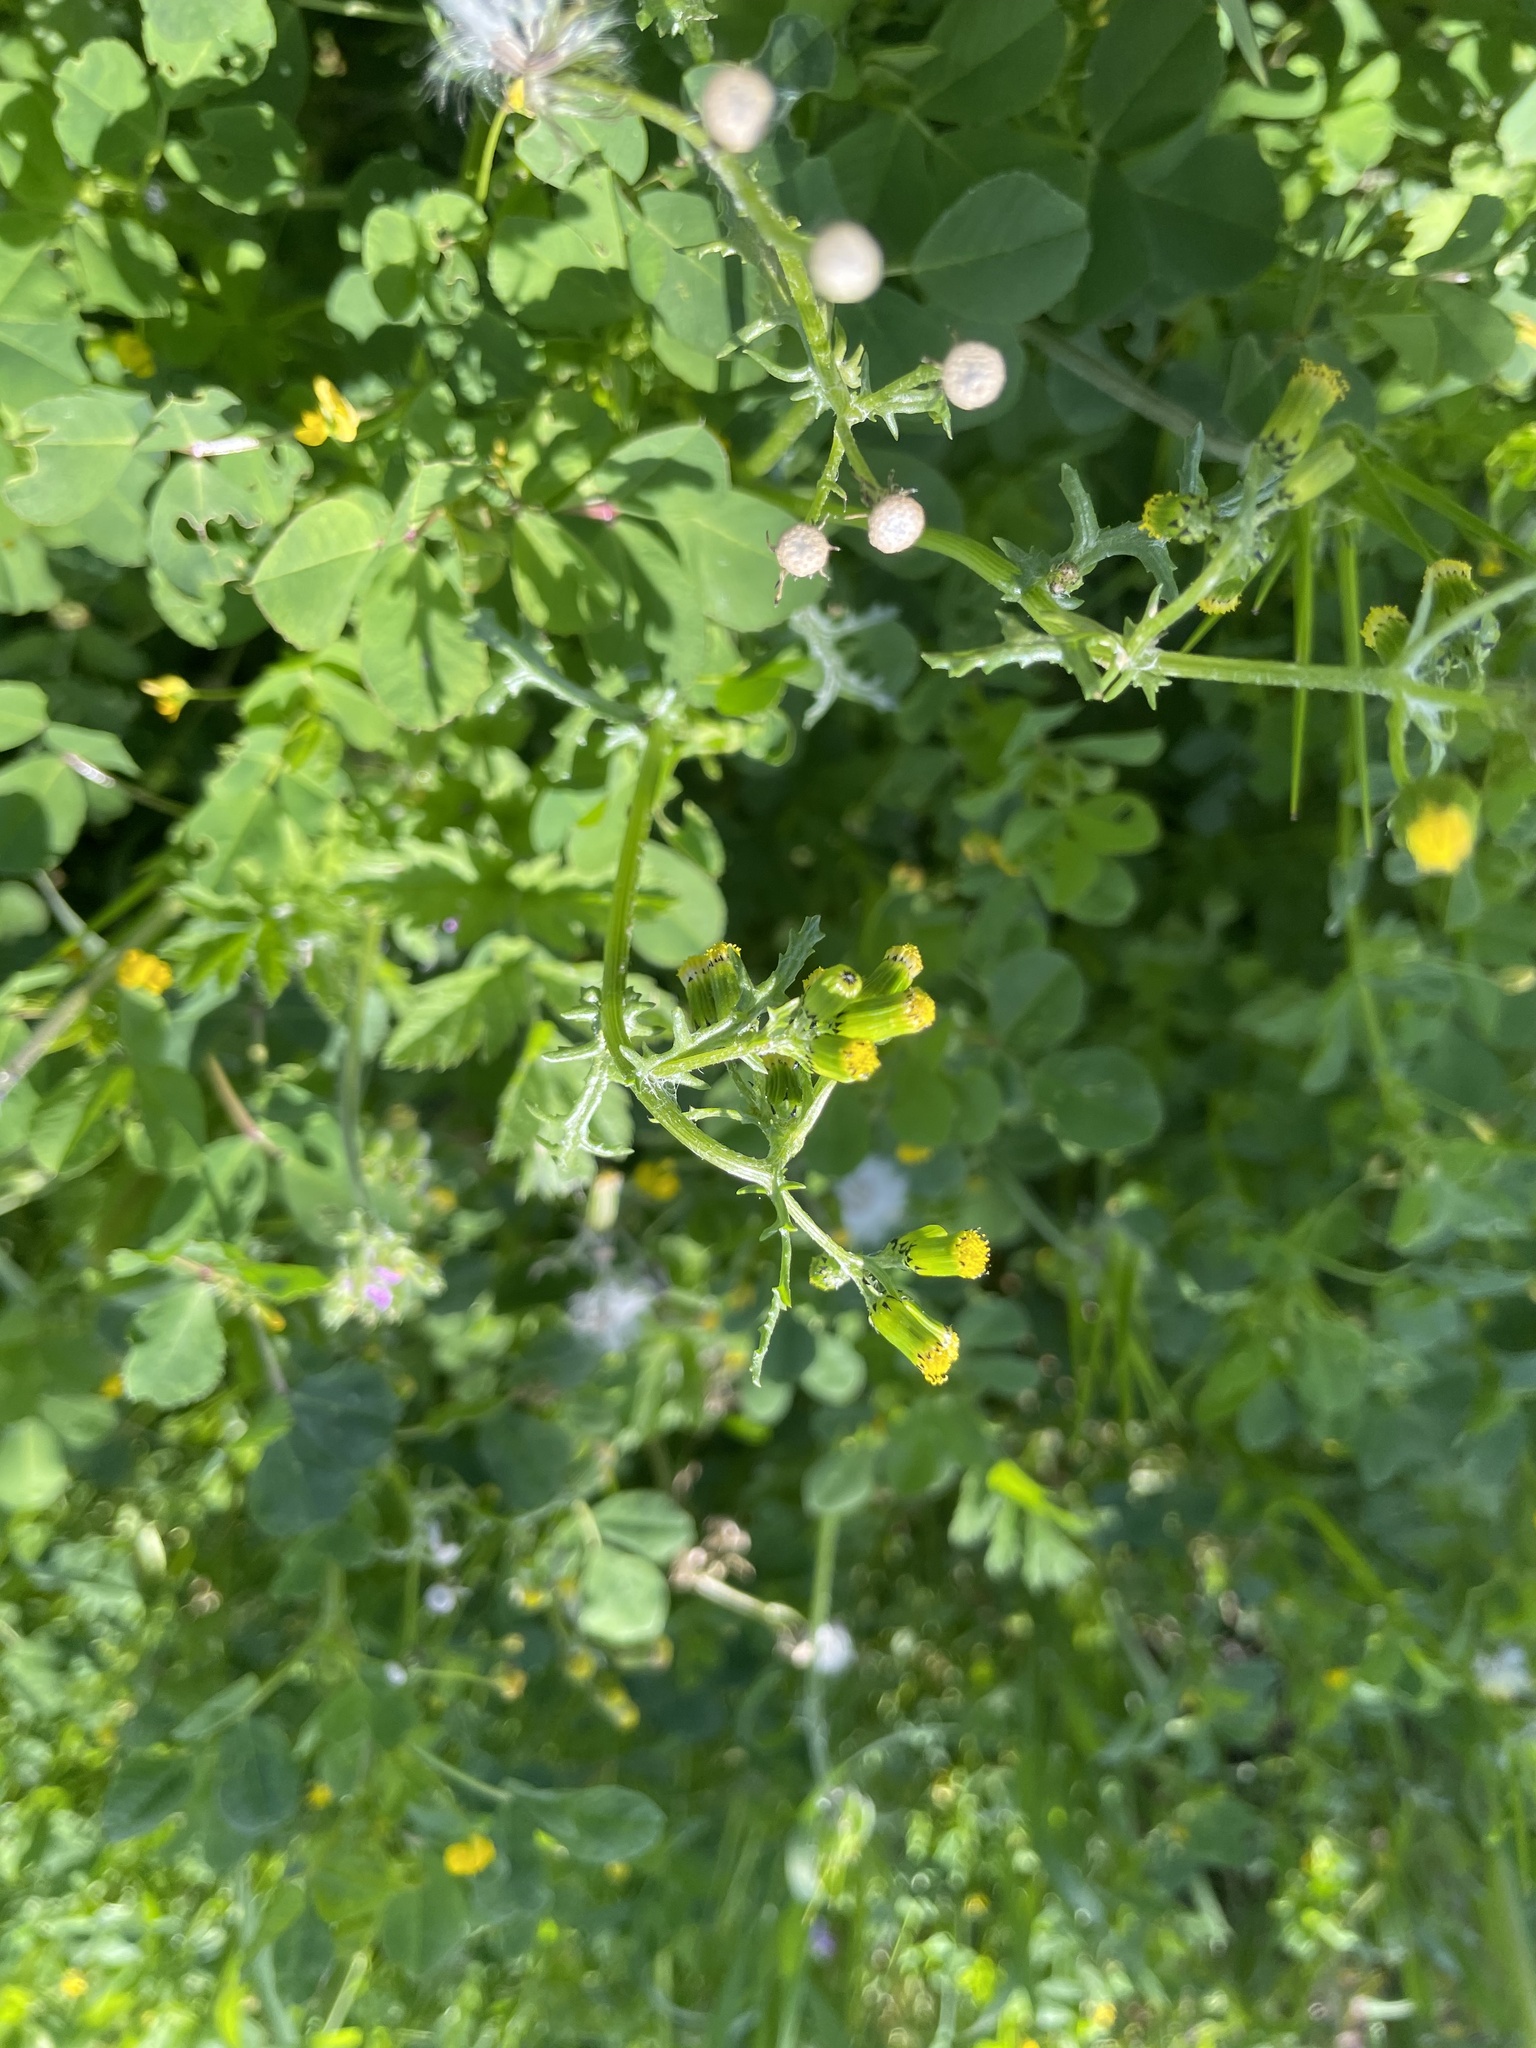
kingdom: Plantae
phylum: Tracheophyta
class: Magnoliopsida
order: Asterales
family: Asteraceae
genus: Senecio
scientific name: Senecio vulgaris
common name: Old-man-in-the-spring
